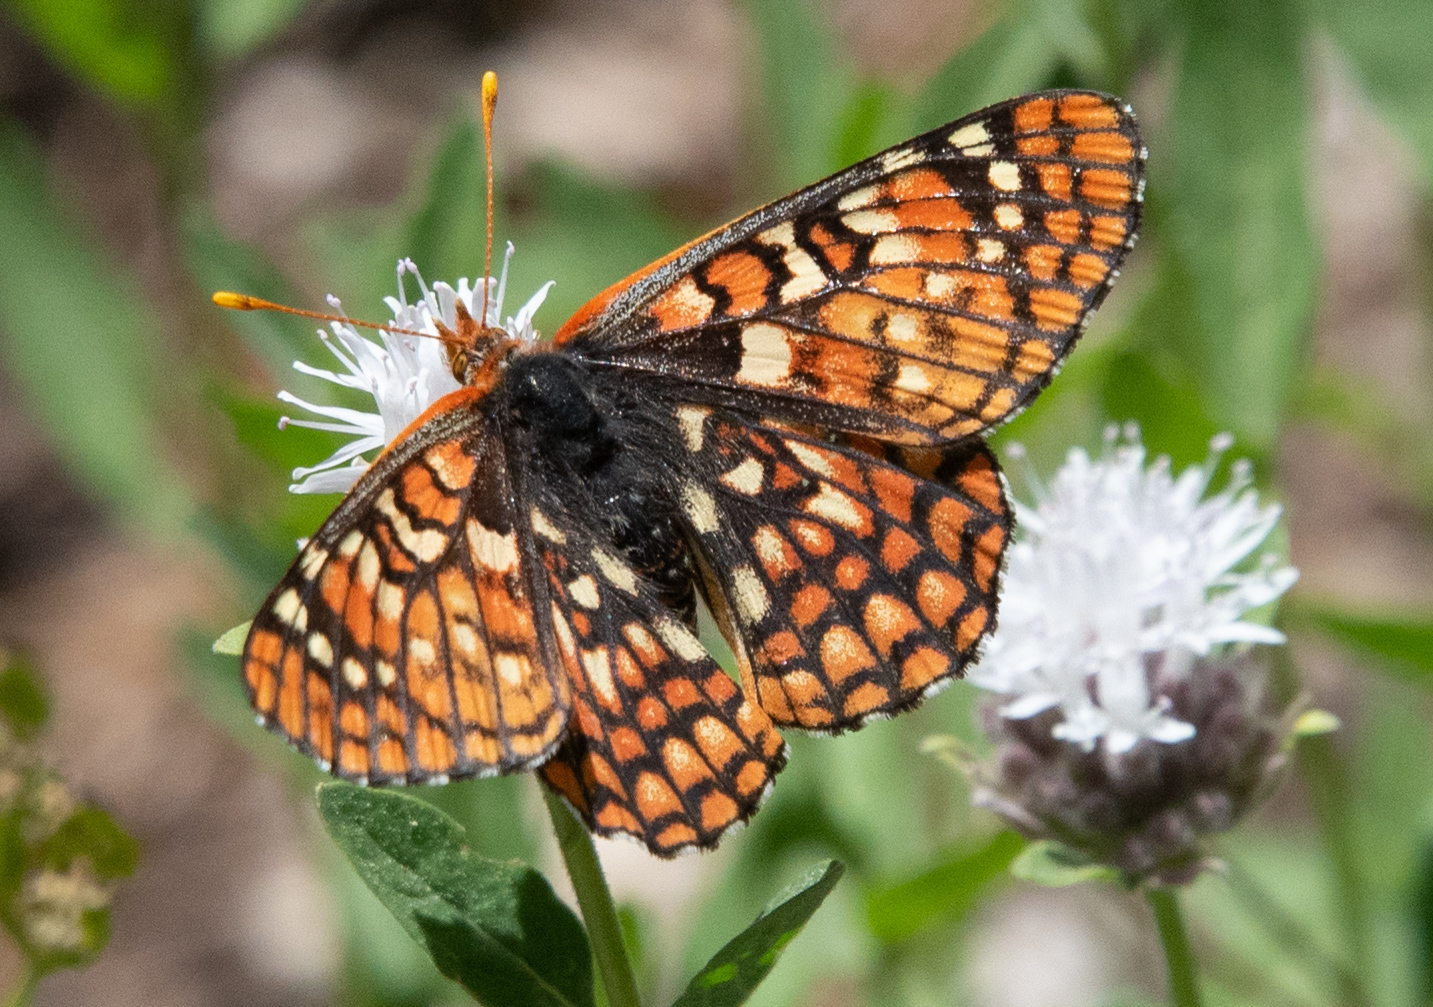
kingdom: Animalia
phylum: Arthropoda
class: Insecta
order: Lepidoptera
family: Nymphalidae
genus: Occidryas
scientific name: Occidryas editha
